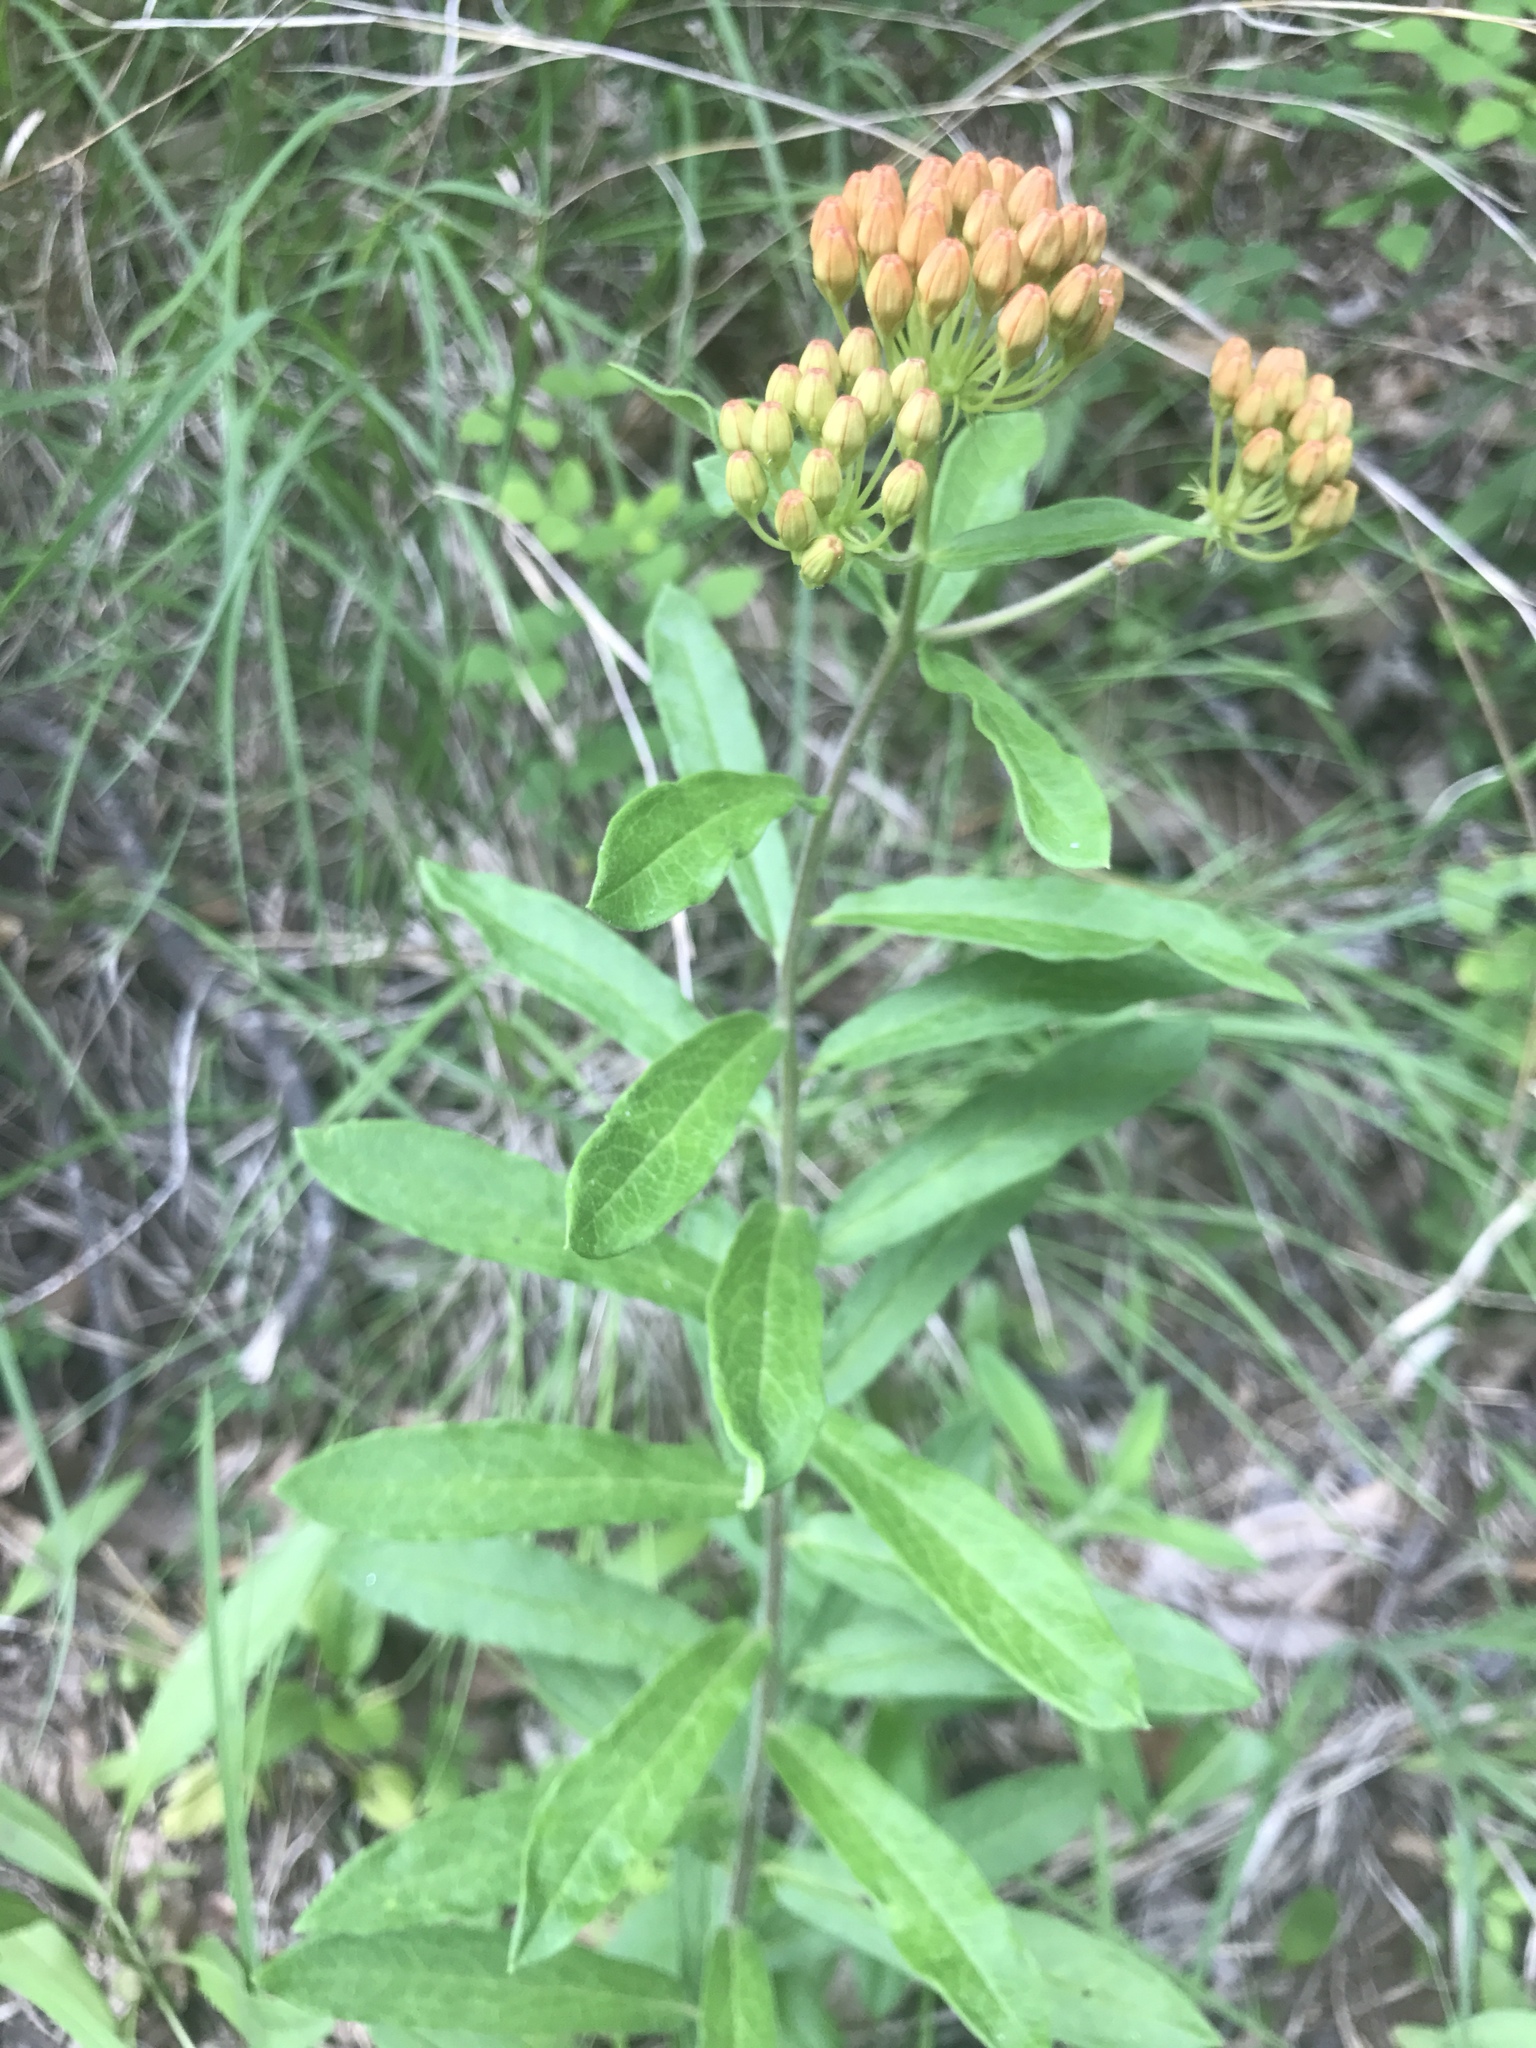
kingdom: Plantae
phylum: Tracheophyta
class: Magnoliopsida
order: Gentianales
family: Apocynaceae
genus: Asclepias
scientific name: Asclepias tuberosa
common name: Butterfly milkweed
